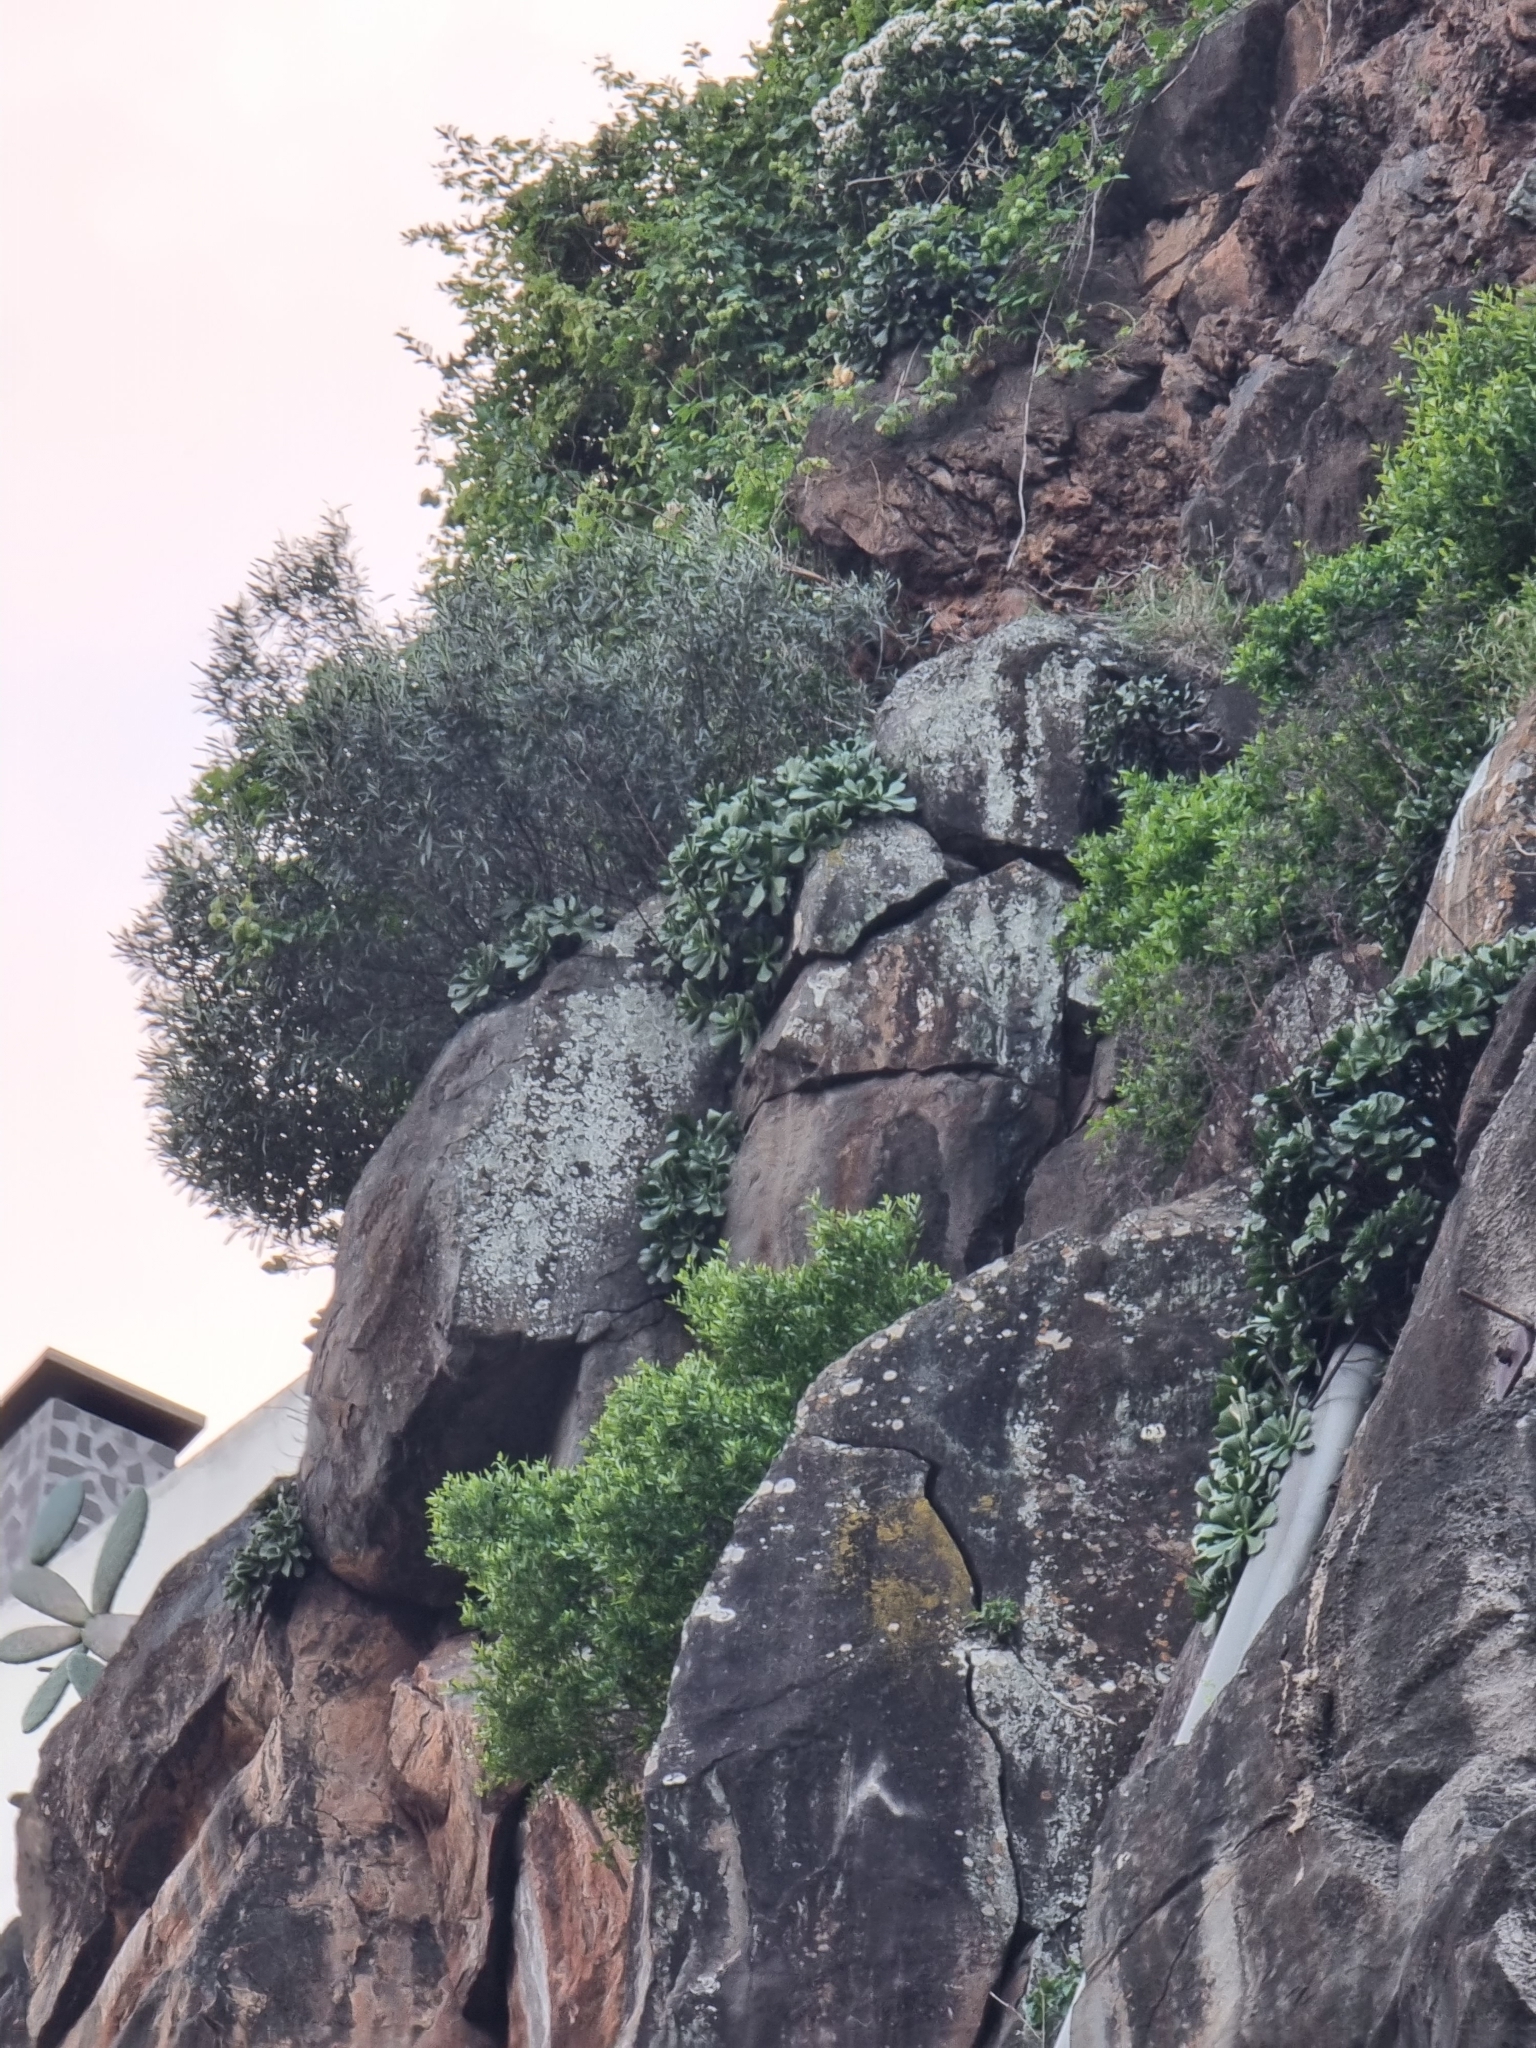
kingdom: Plantae
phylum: Tracheophyta
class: Magnoliopsida
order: Lamiales
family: Oleaceae
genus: Olea
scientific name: Olea europaea
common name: Olive
